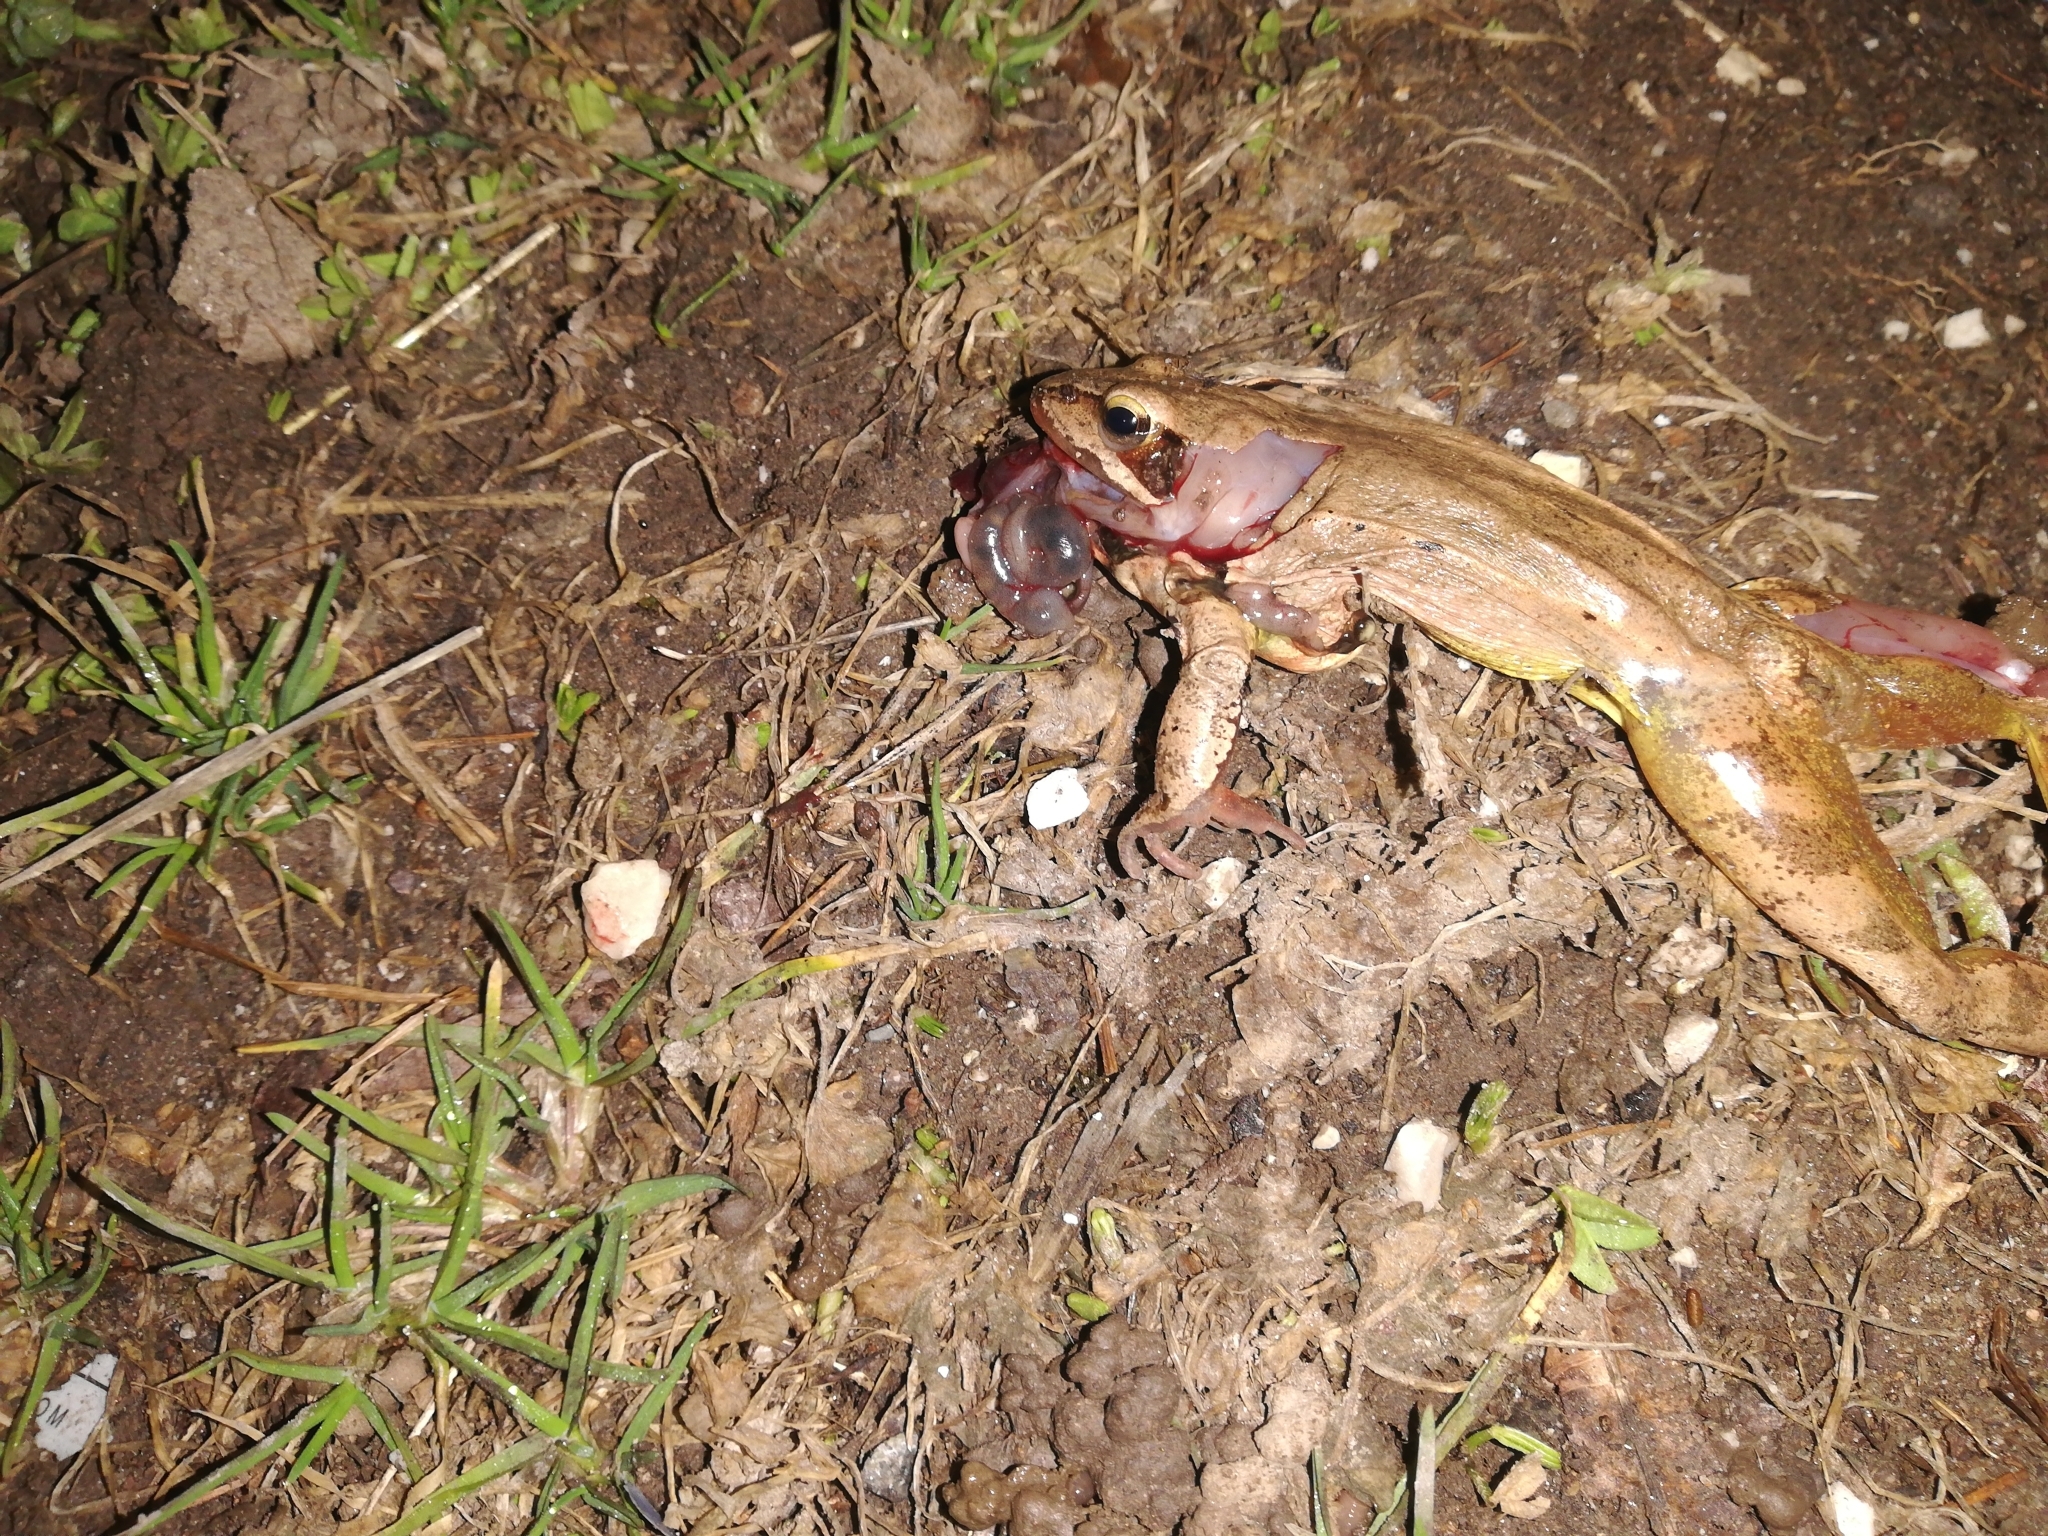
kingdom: Animalia
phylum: Chordata
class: Amphibia
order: Anura
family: Ranidae
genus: Rana
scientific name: Rana dalmatina
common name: Agile frog
